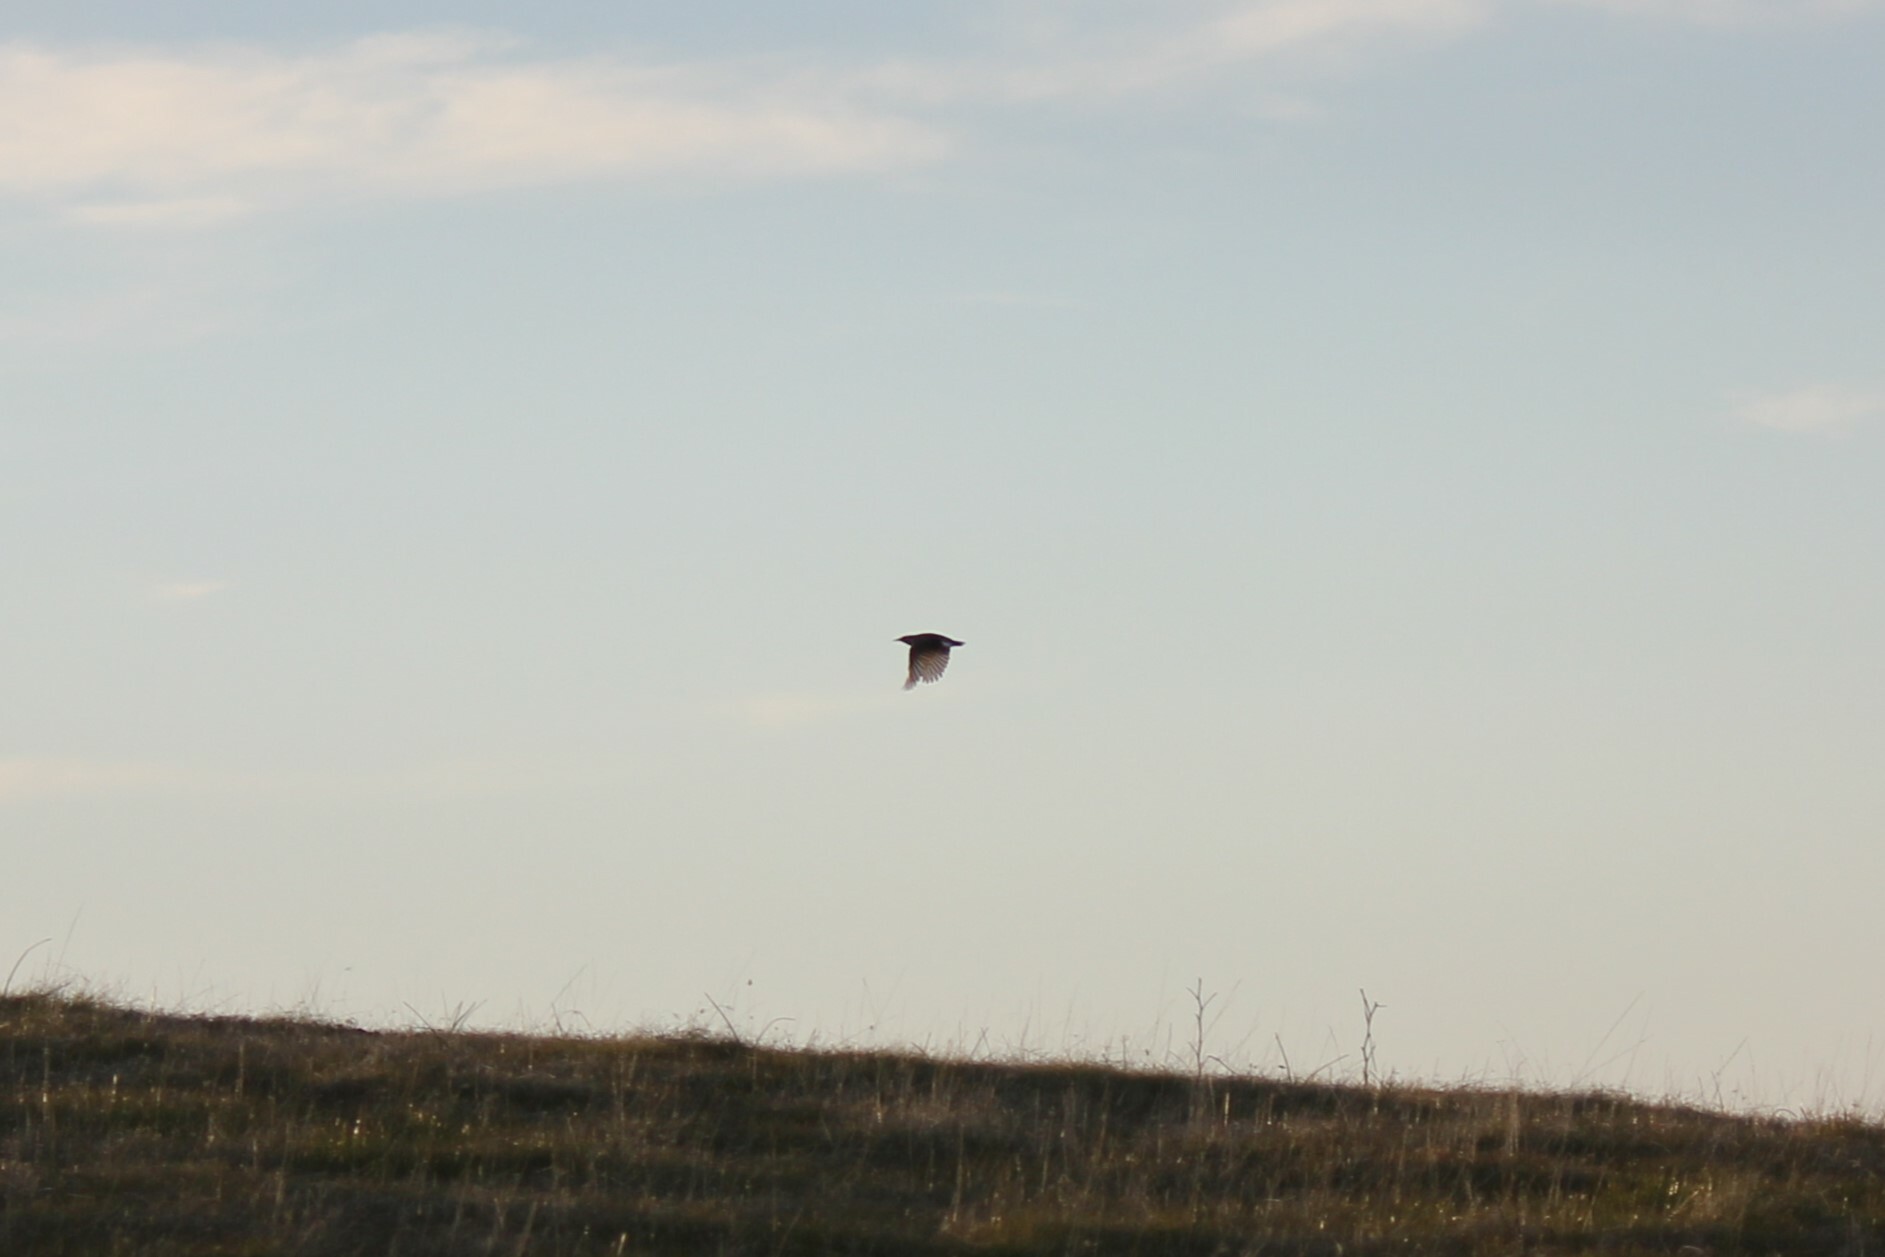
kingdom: Animalia
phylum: Chordata
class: Aves
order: Passeriformes
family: Icteridae
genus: Sturnella
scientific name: Sturnella neglecta
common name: Western meadowlark
